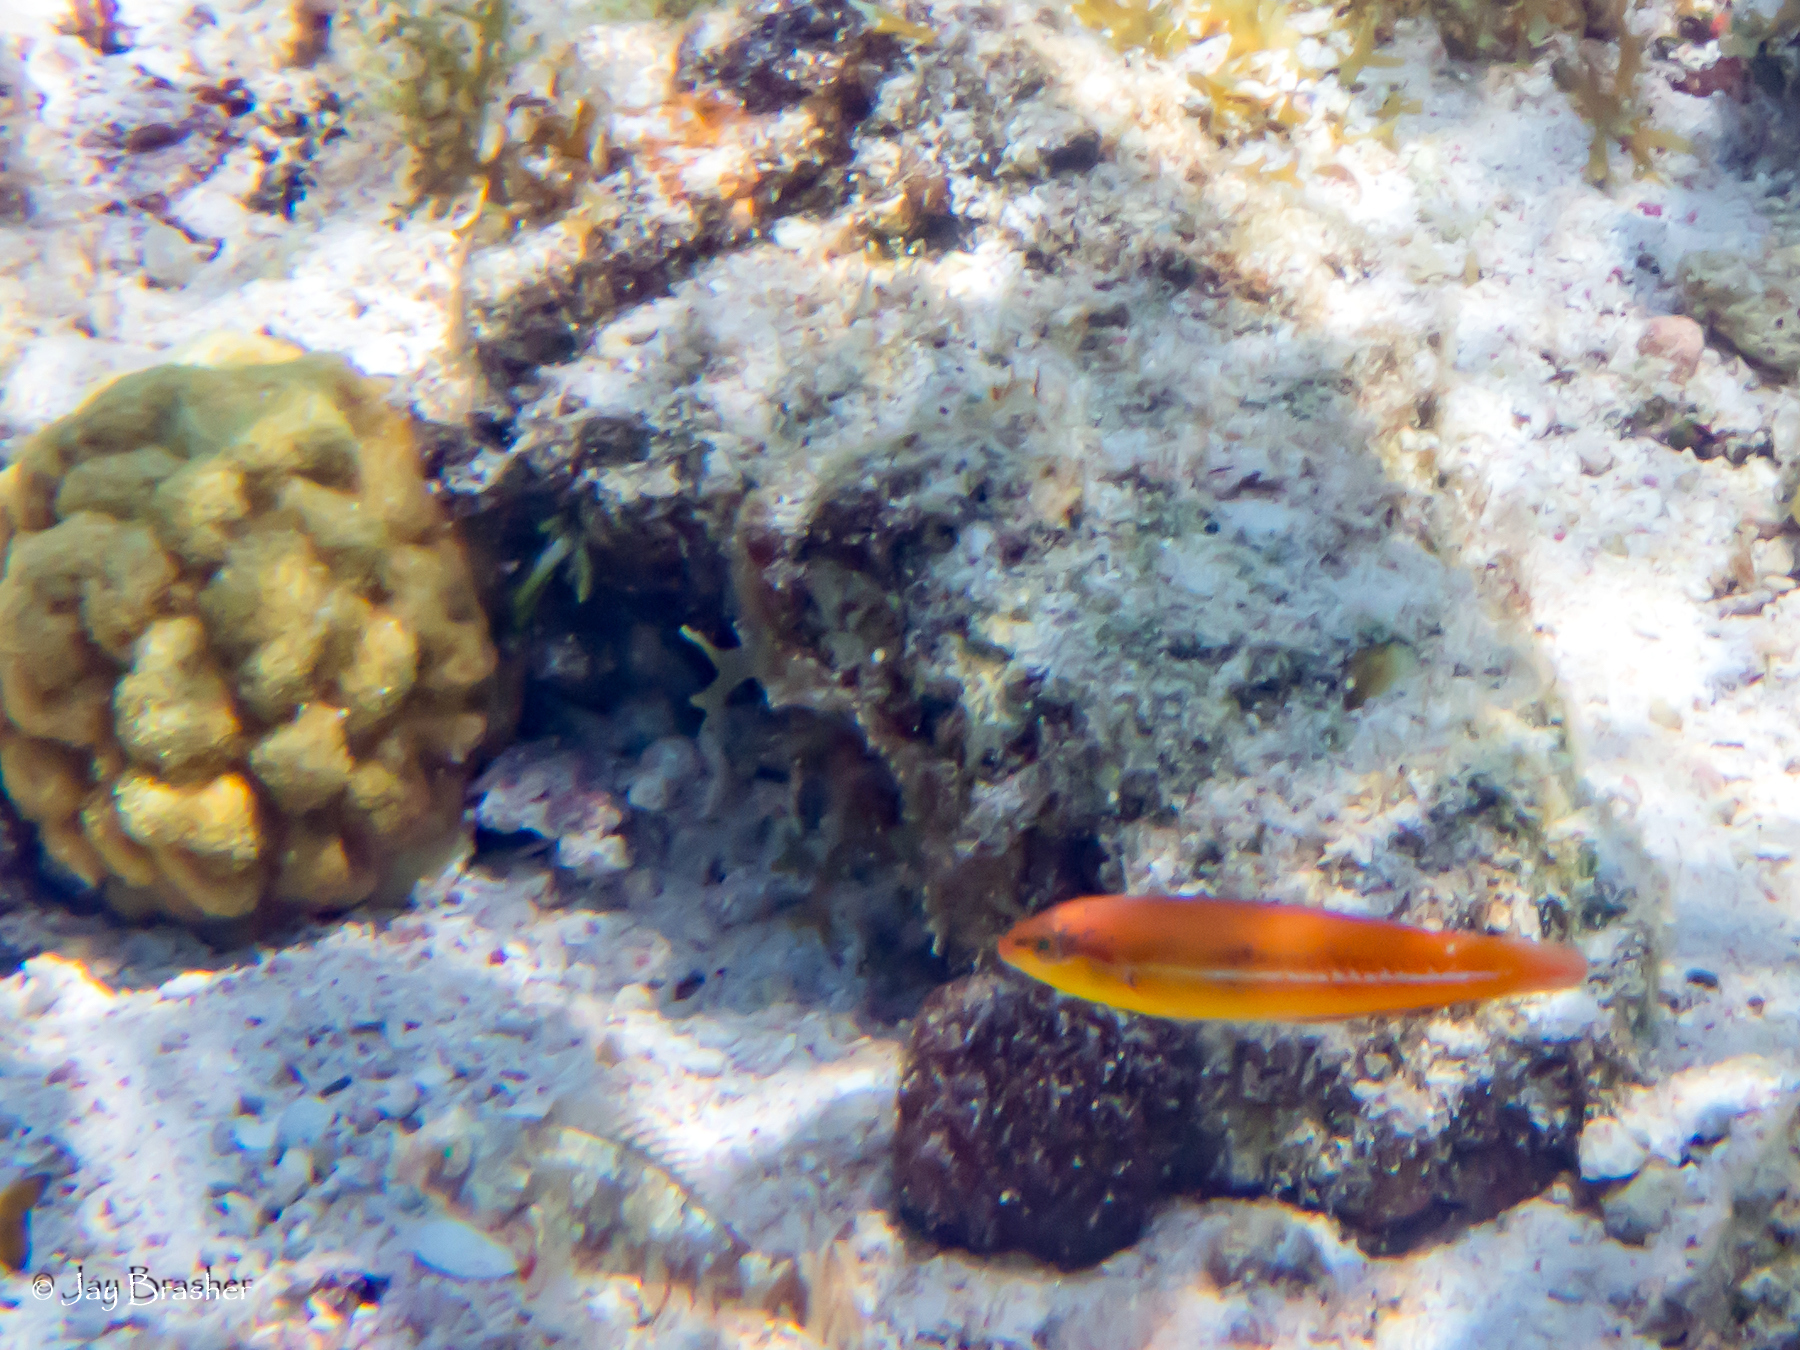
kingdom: Animalia
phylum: Chordata
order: Perciformes
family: Labridae
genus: Halichoeres
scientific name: Halichoeres garnoti
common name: Yellowhead wrasse
